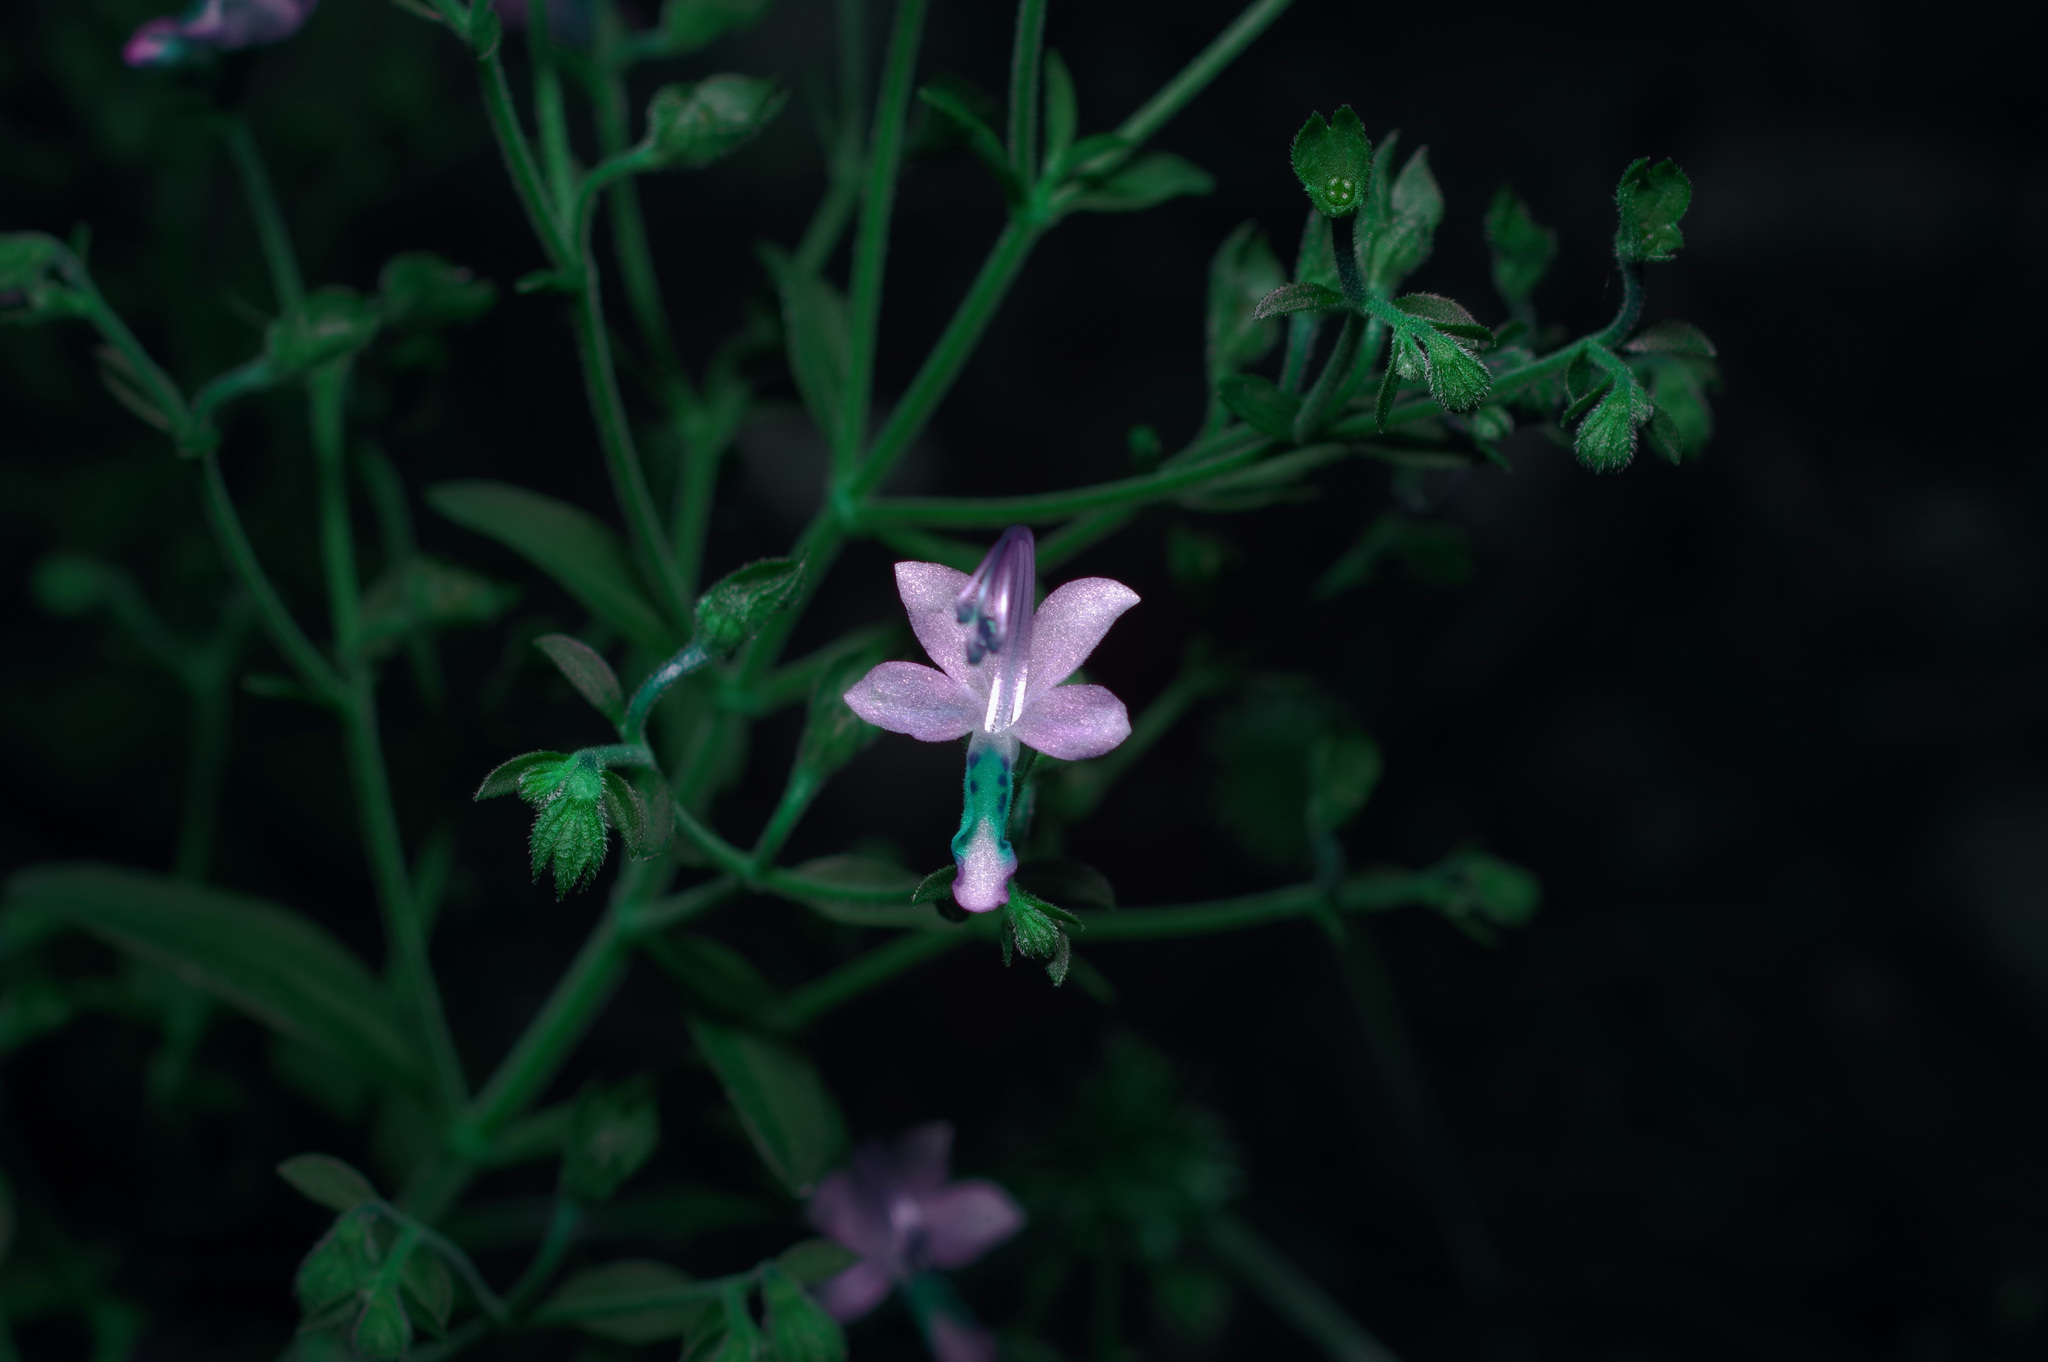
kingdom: Plantae
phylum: Tracheophyta
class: Magnoliopsida
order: Lamiales
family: Lamiaceae
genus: Trichostema
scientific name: Trichostema dichotomum
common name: Bastard pennyroyal
